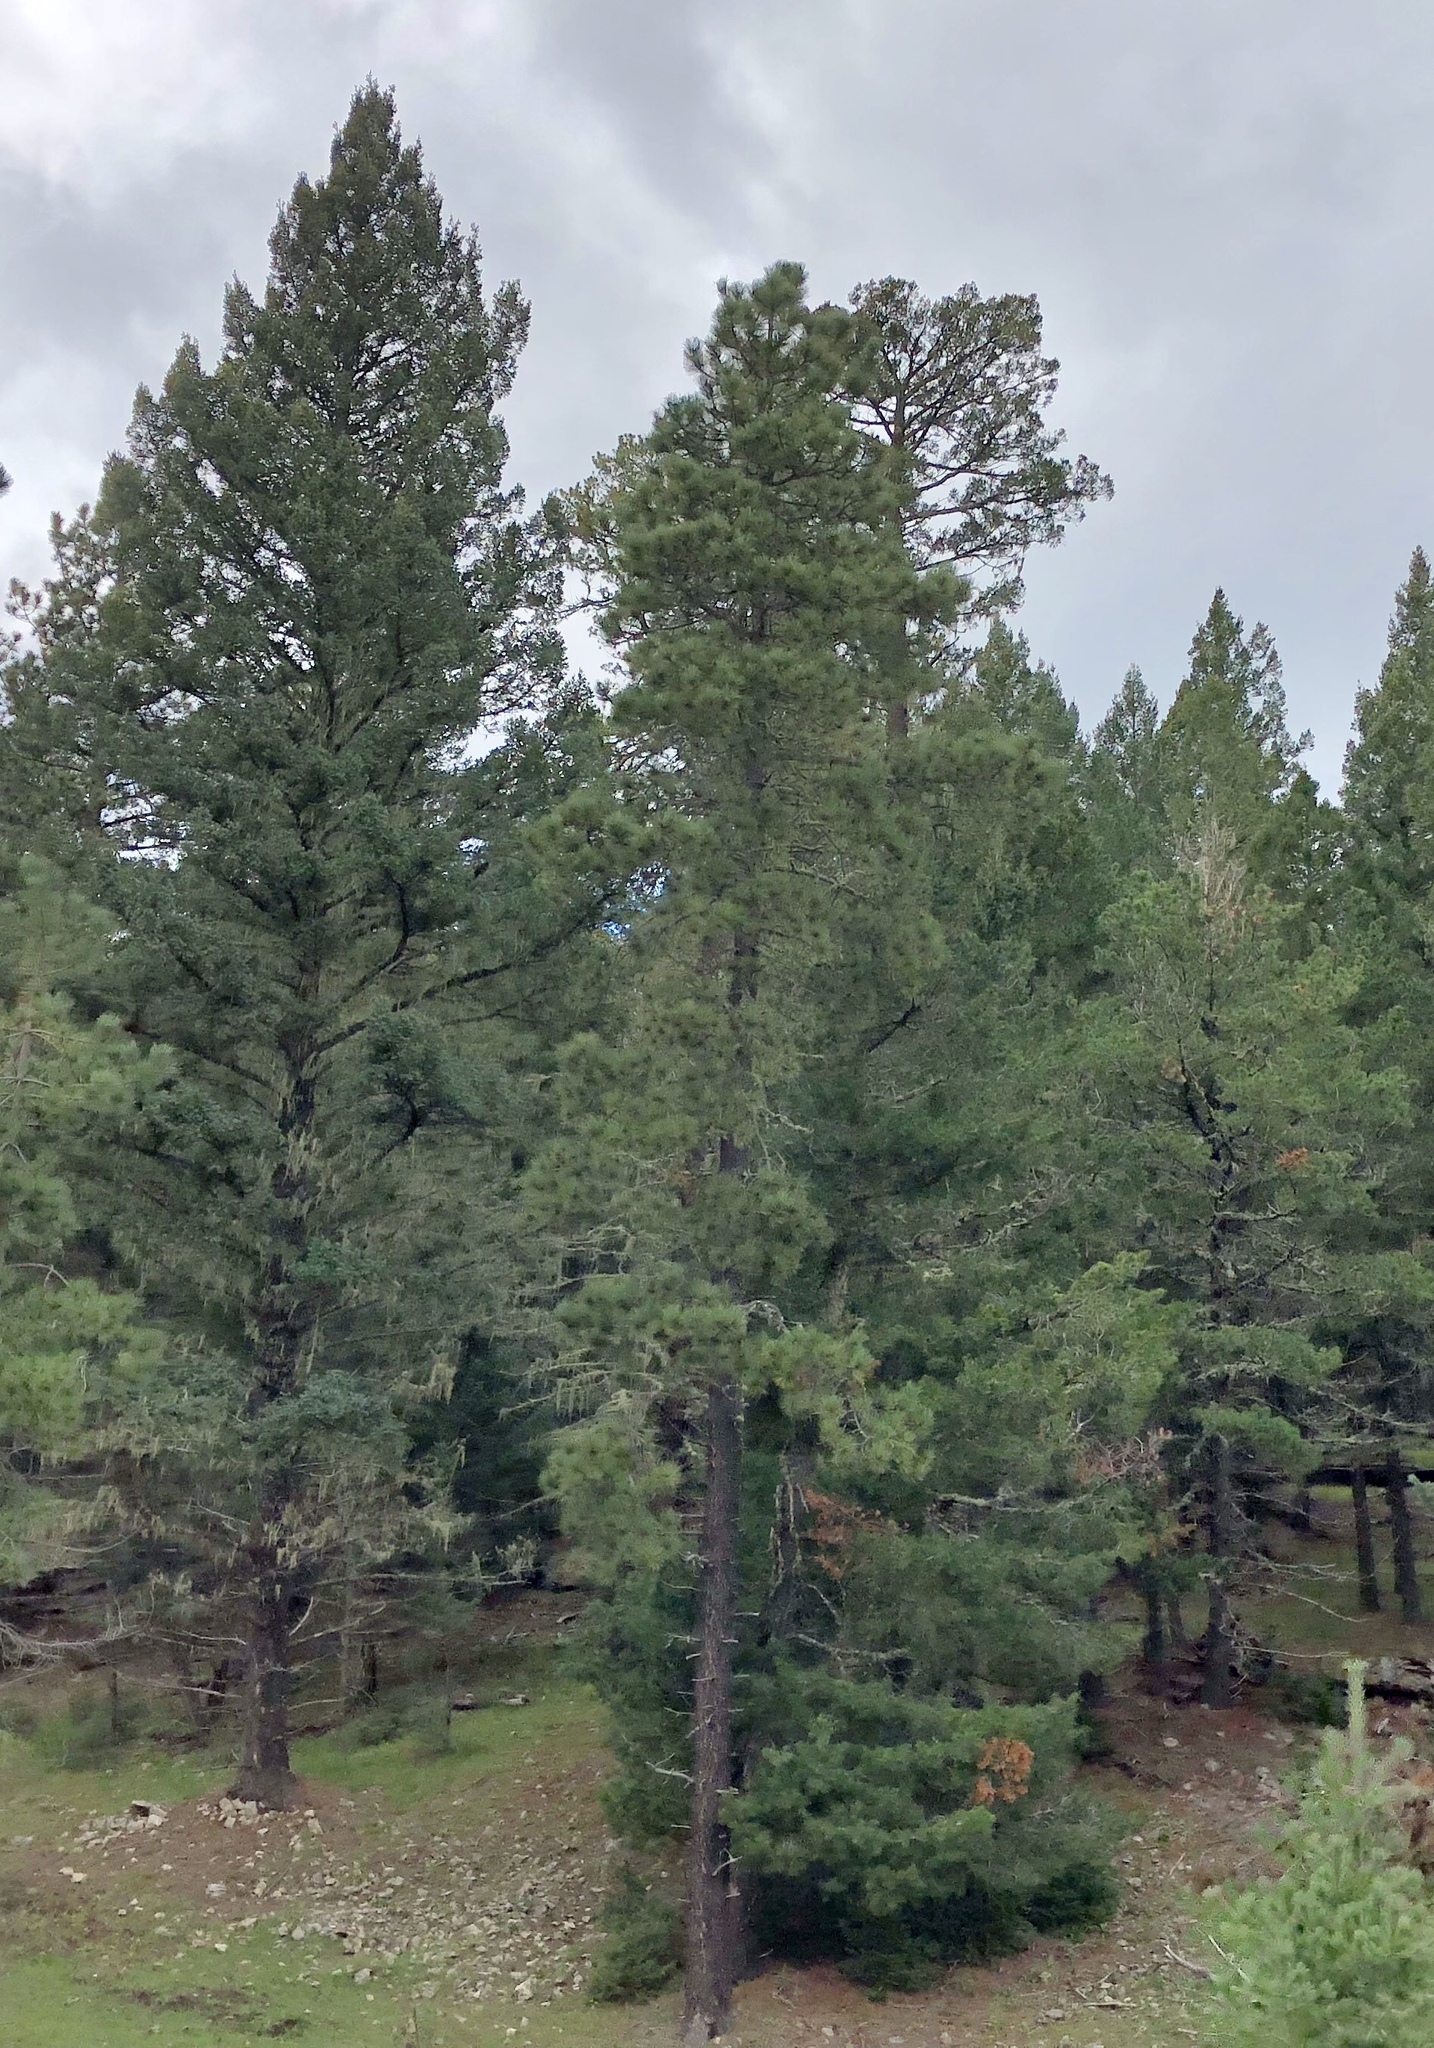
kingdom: Plantae
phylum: Tracheophyta
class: Pinopsida
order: Pinales
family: Pinaceae
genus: Pinus
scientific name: Pinus ponderosa
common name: Western yellow-pine
